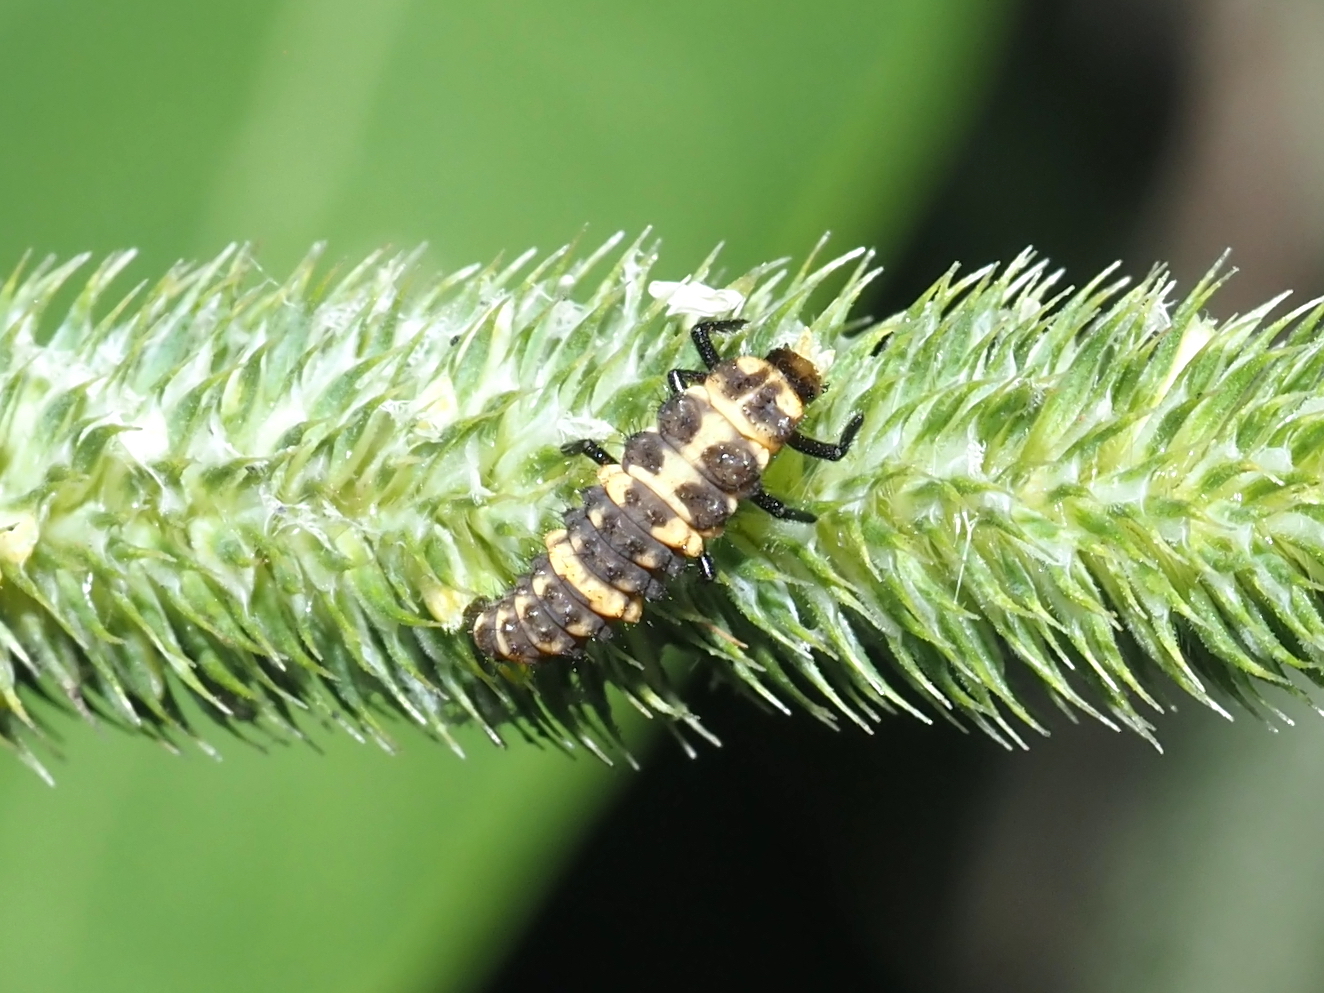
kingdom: Animalia
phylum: Arthropoda
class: Insecta
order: Coleoptera
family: Coccinellidae
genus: Coleomegilla
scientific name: Coleomegilla maculata
